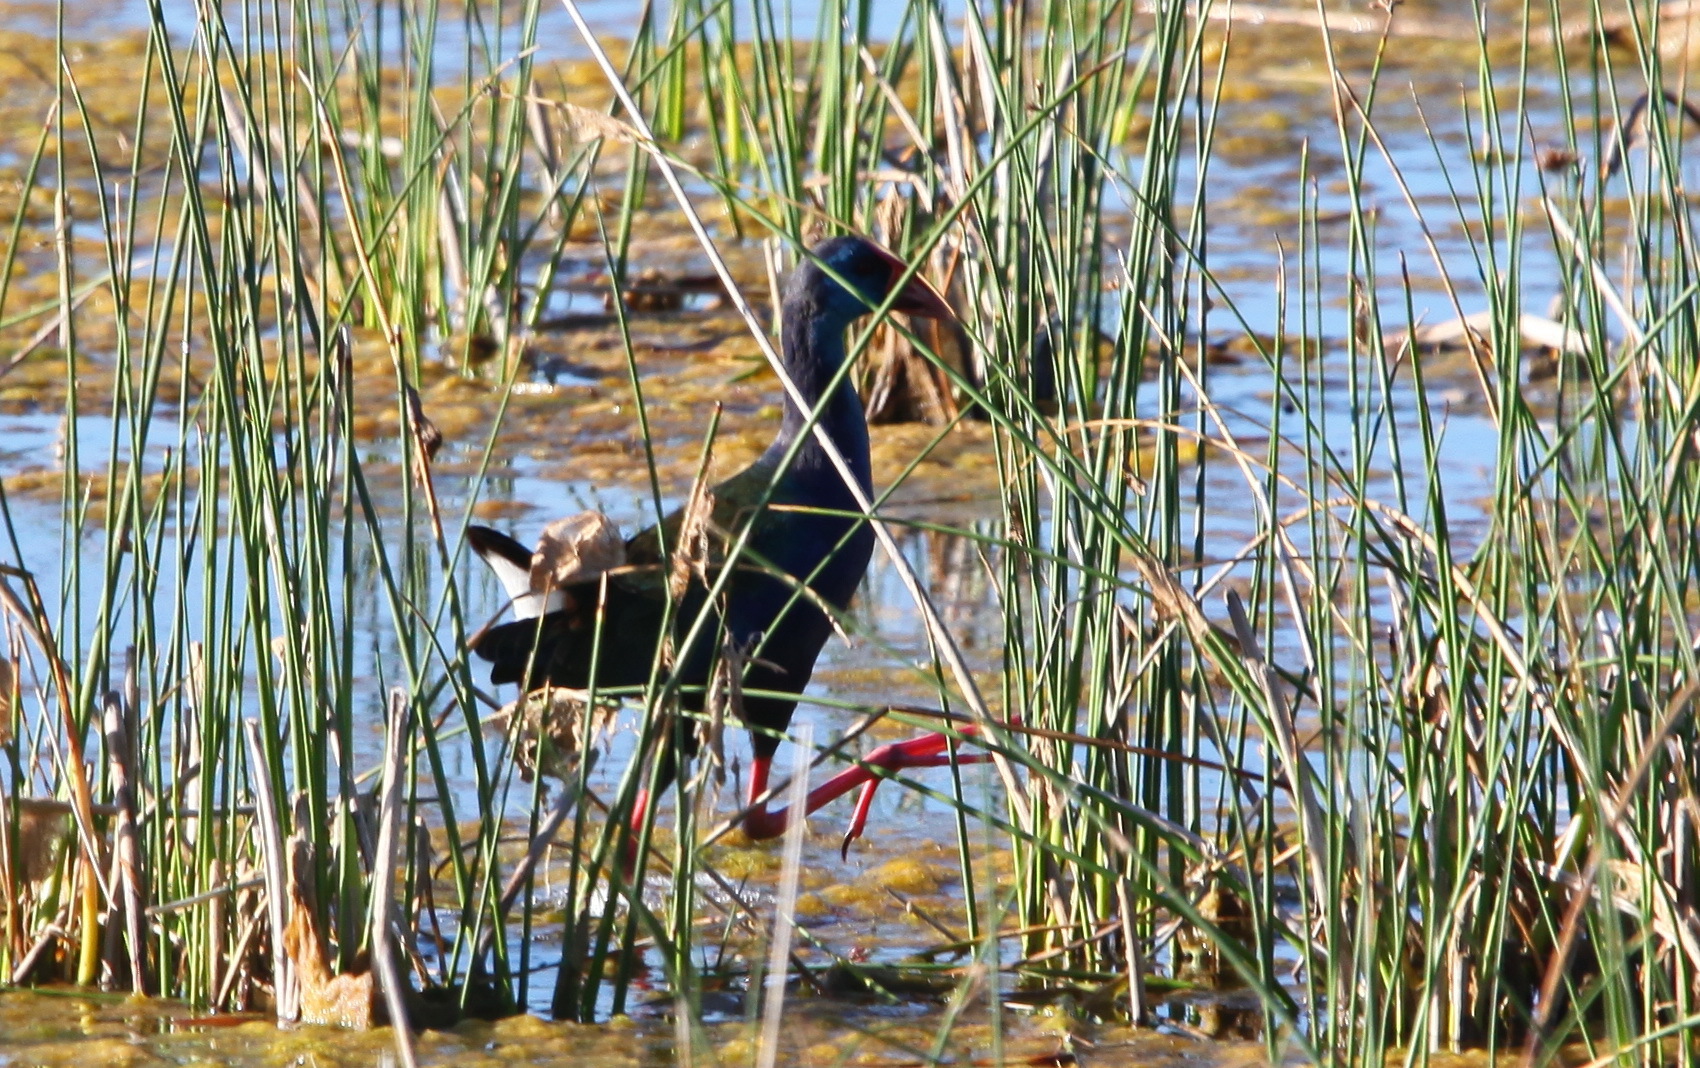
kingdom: Animalia
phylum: Chordata
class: Aves
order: Gruiformes
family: Rallidae
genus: Porphyrio
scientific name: Porphyrio porphyrio
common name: Purple swamphen
